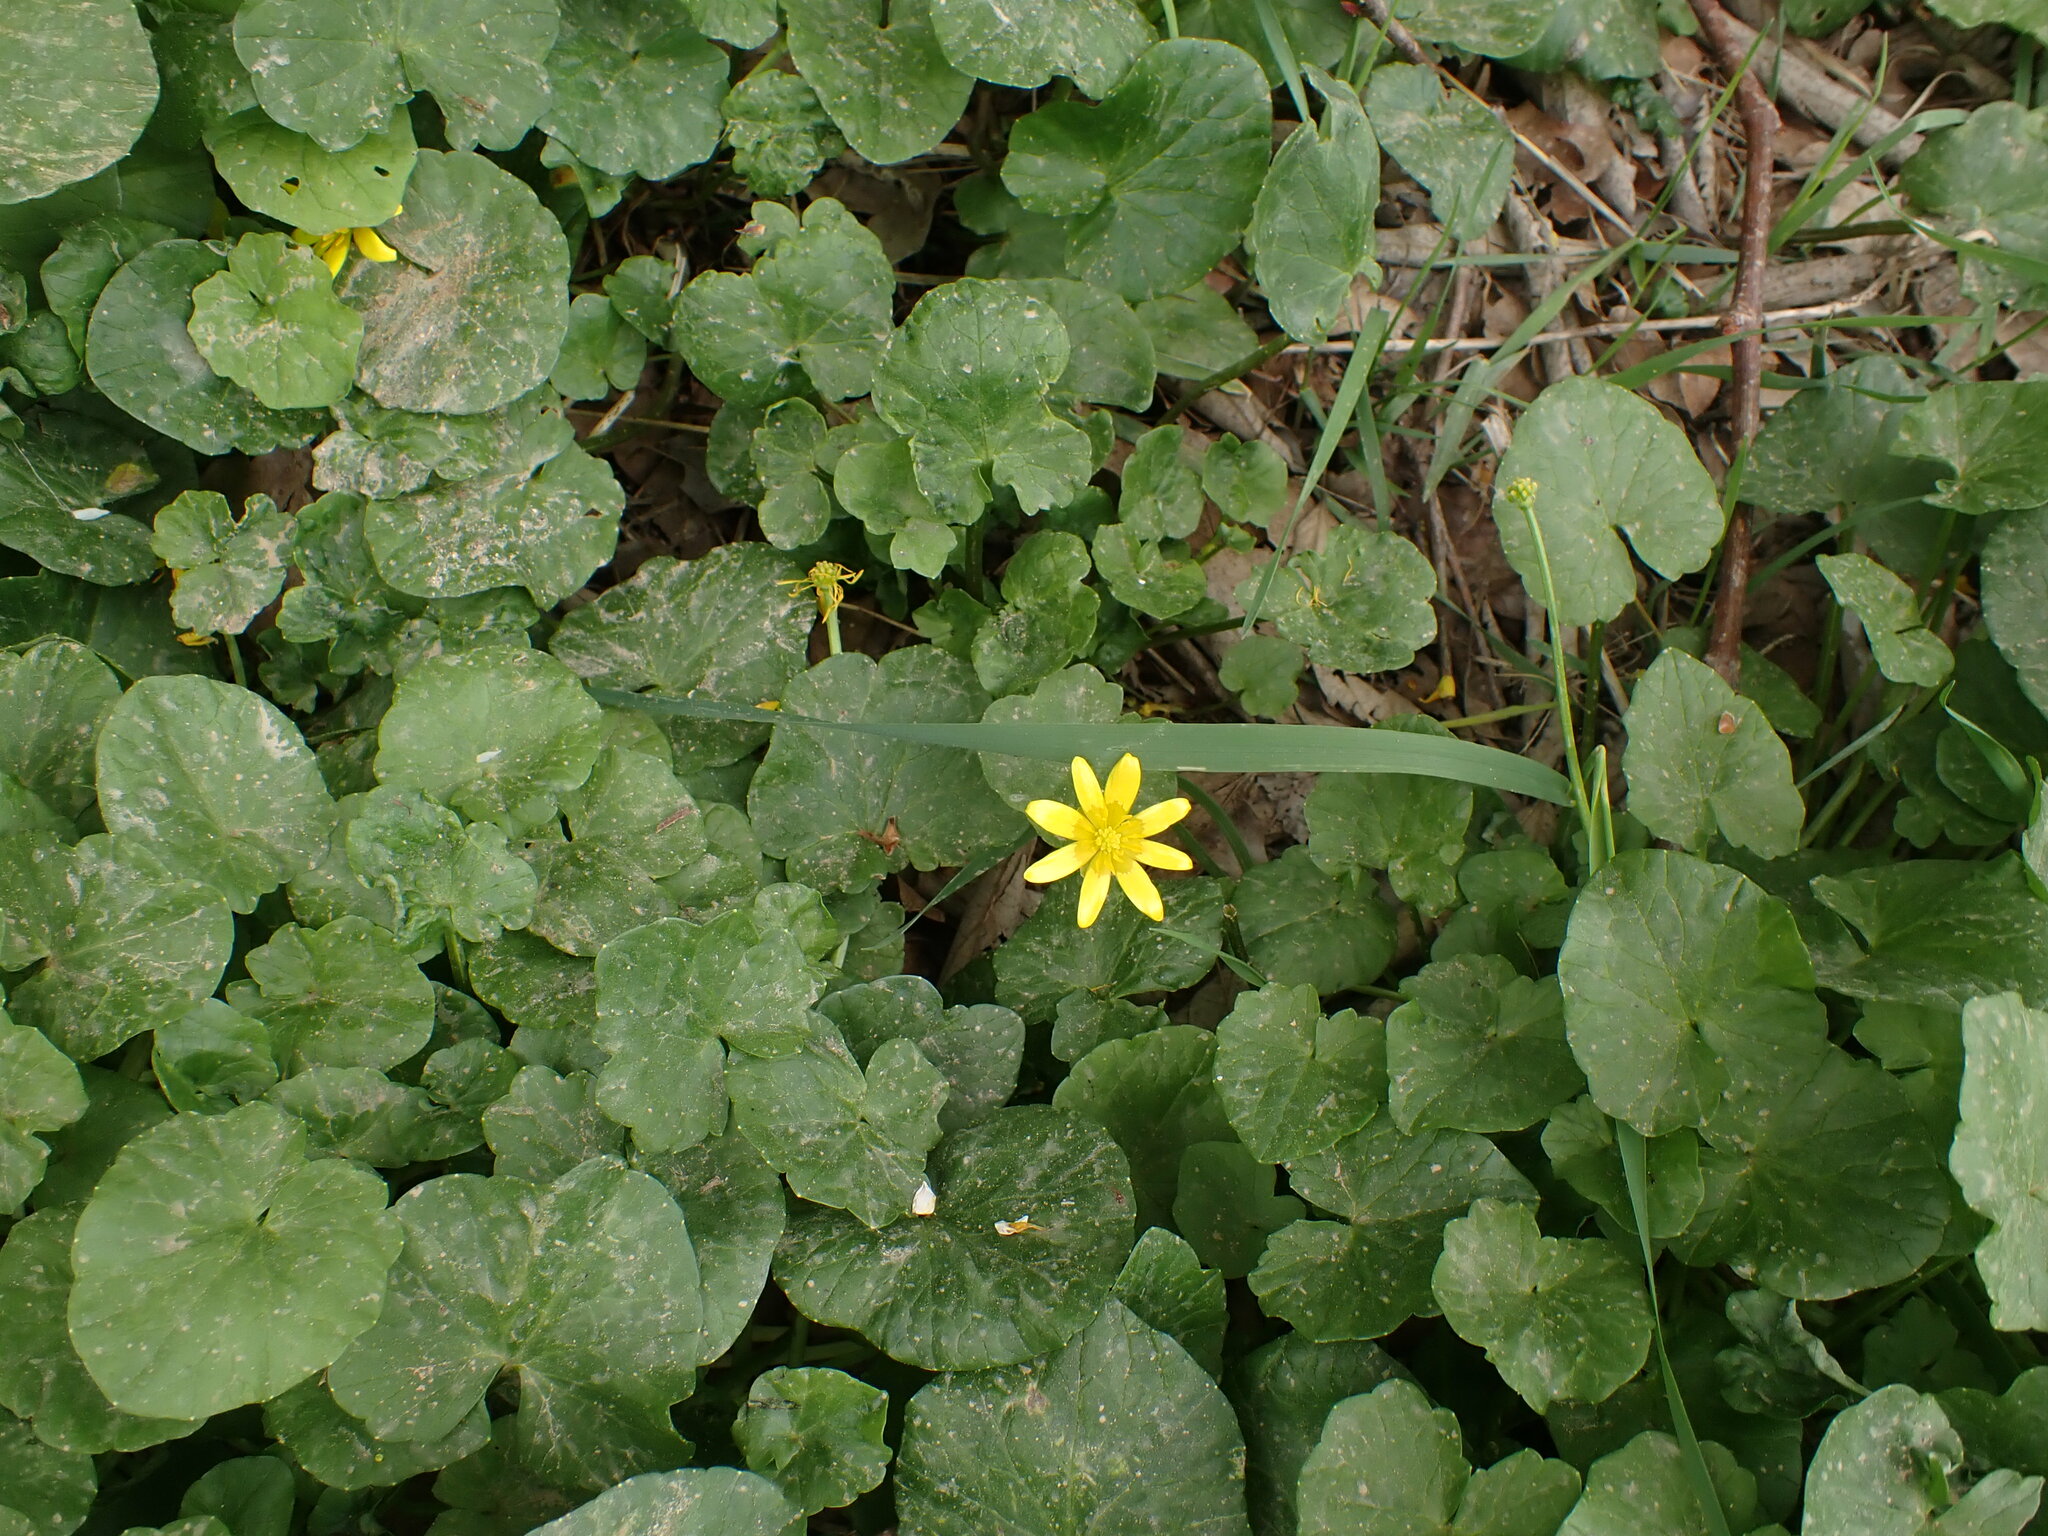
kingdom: Plantae
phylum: Tracheophyta
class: Magnoliopsida
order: Ranunculales
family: Ranunculaceae
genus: Ficaria
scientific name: Ficaria verna
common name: Lesser celandine
